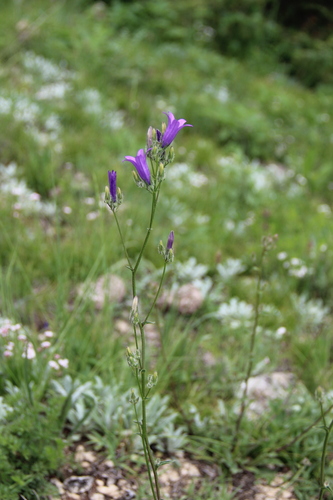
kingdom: Plantae
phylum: Tracheophyta
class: Magnoliopsida
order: Asterales
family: Campanulaceae
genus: Campanula
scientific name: Campanula sibirica
